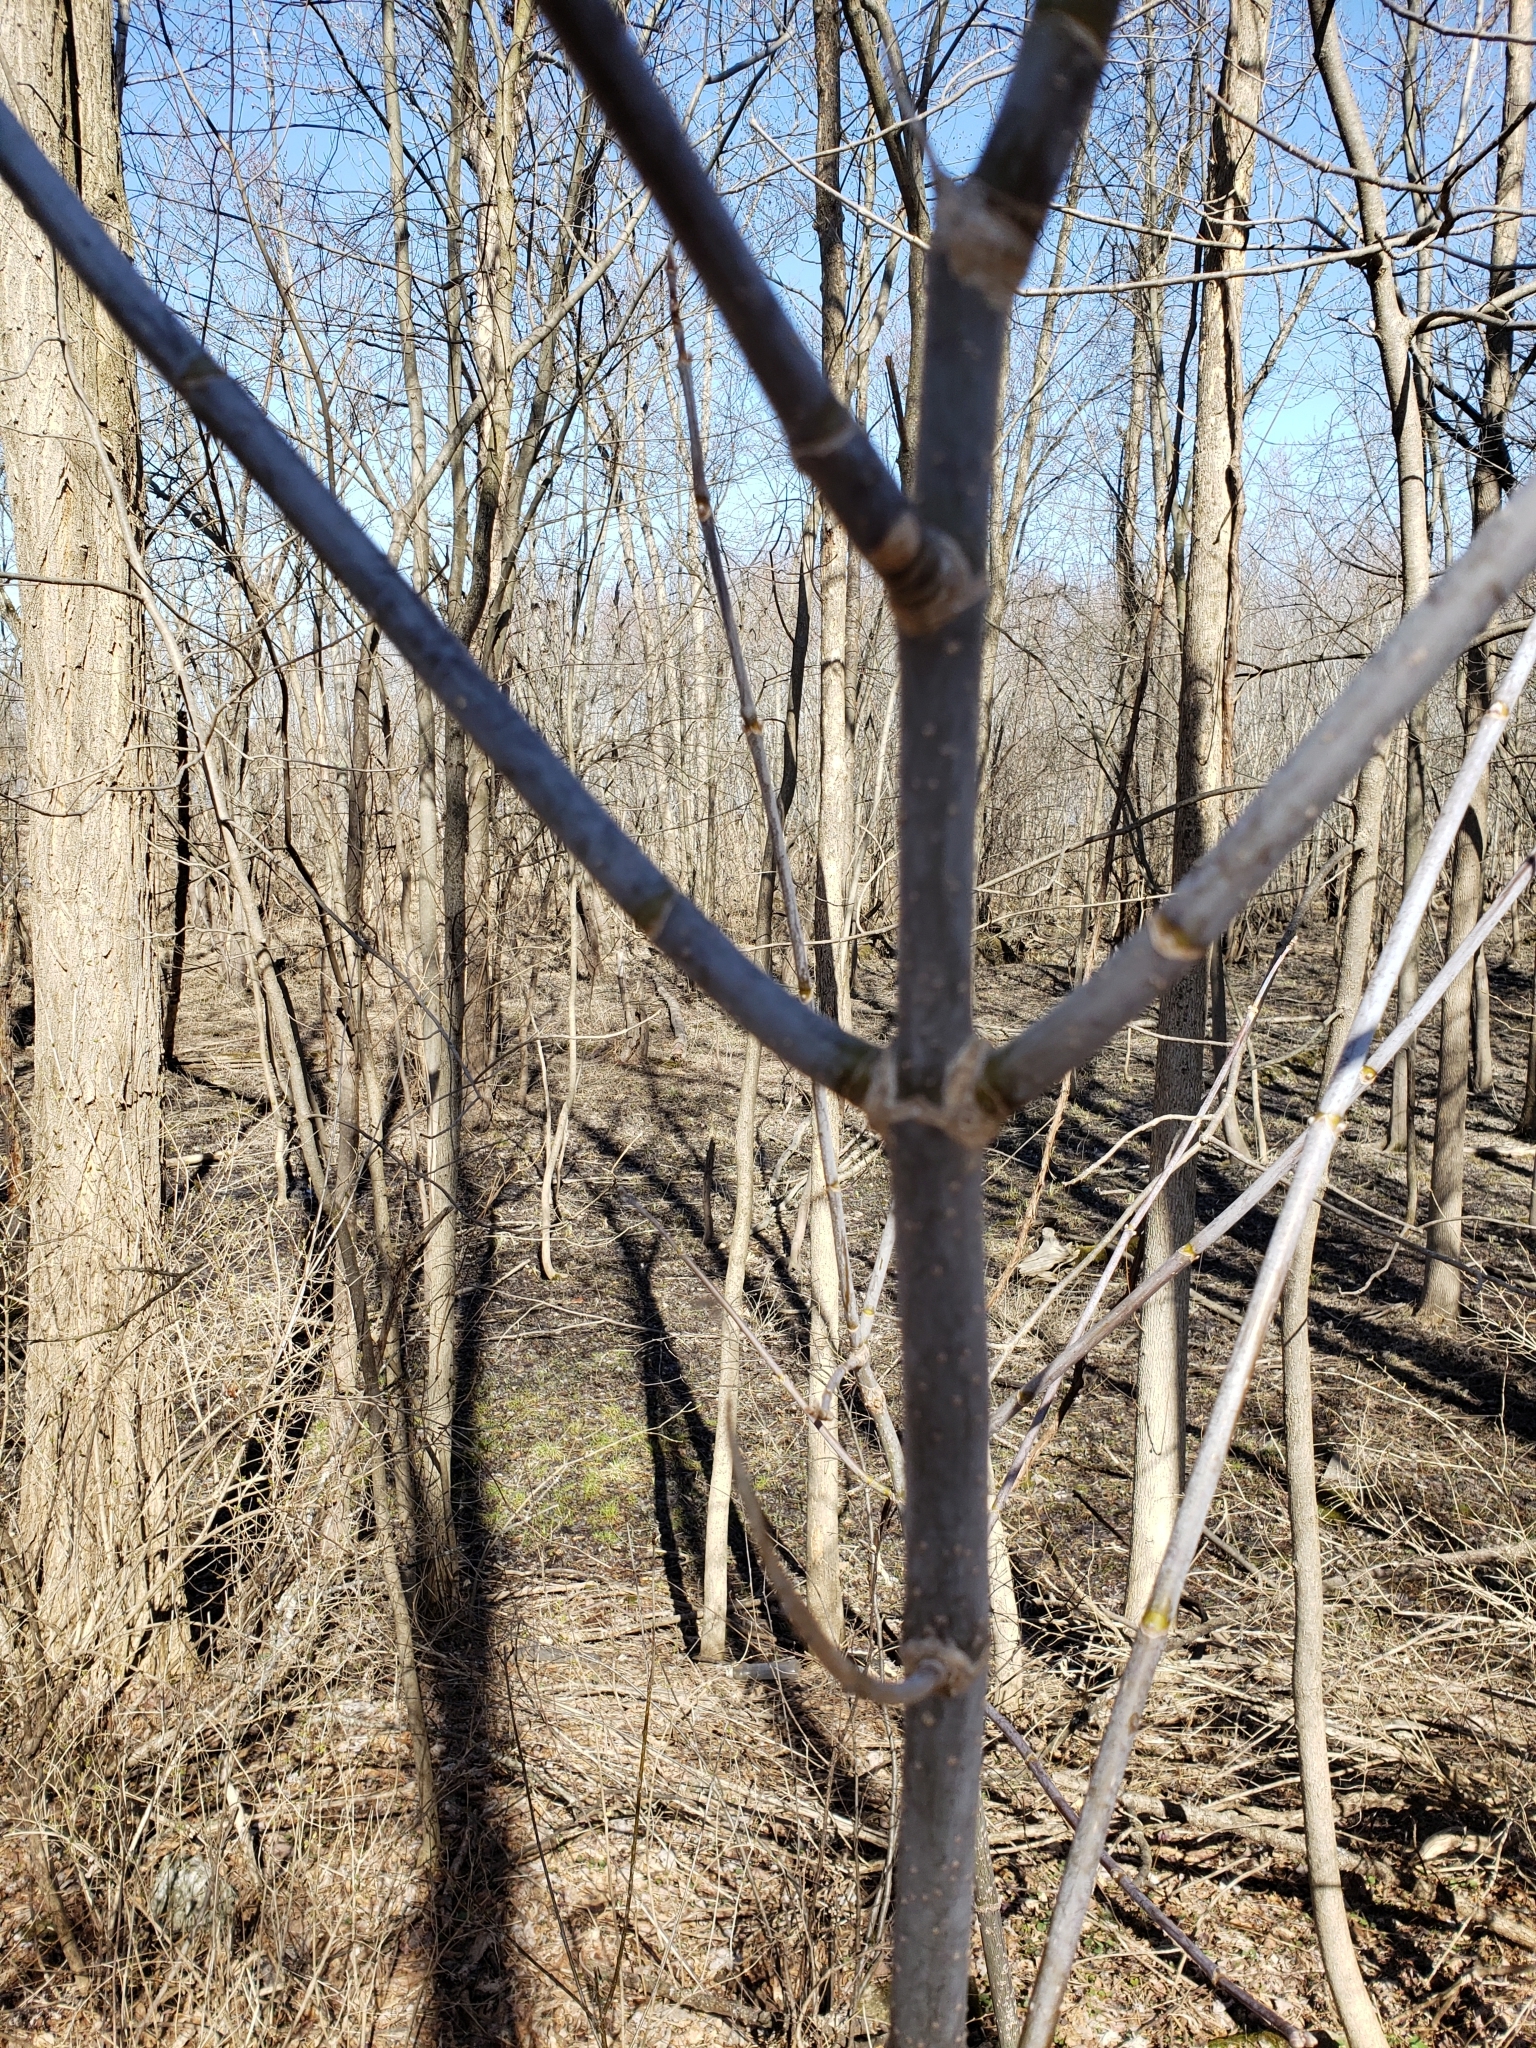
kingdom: Plantae
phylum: Tracheophyta
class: Magnoliopsida
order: Sapindales
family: Sapindaceae
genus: Acer
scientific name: Acer negundo
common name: Ashleaf maple
